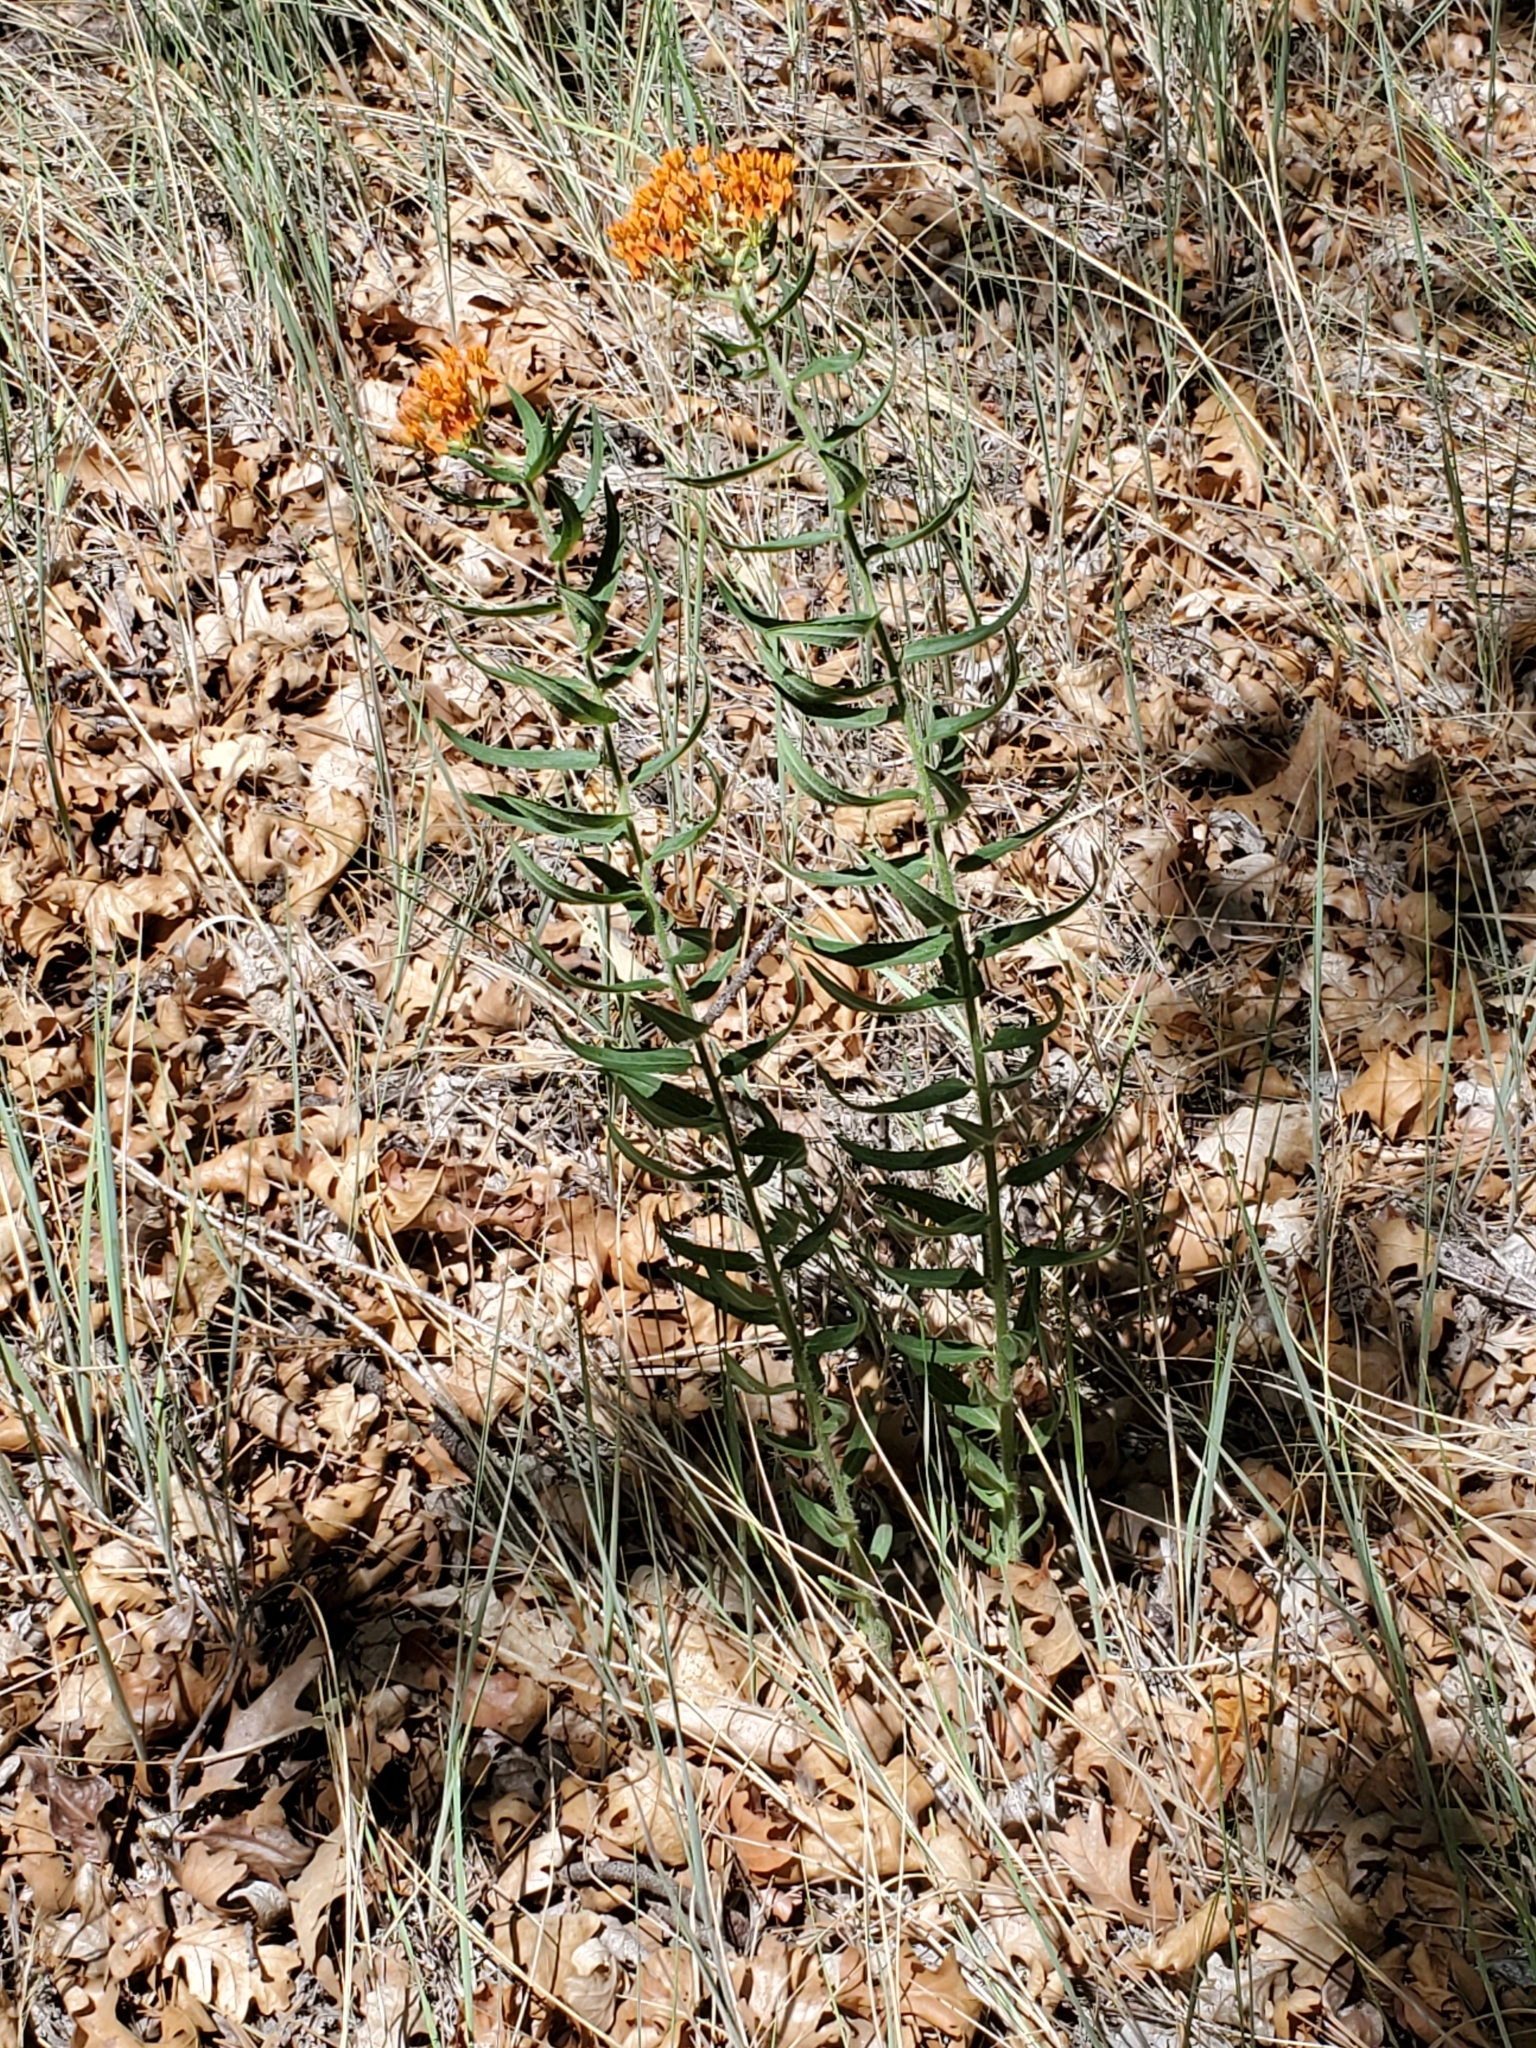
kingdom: Plantae
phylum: Tracheophyta
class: Magnoliopsida
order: Gentianales
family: Apocynaceae
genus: Asclepias
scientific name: Asclepias tuberosa
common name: Butterfly milkweed
